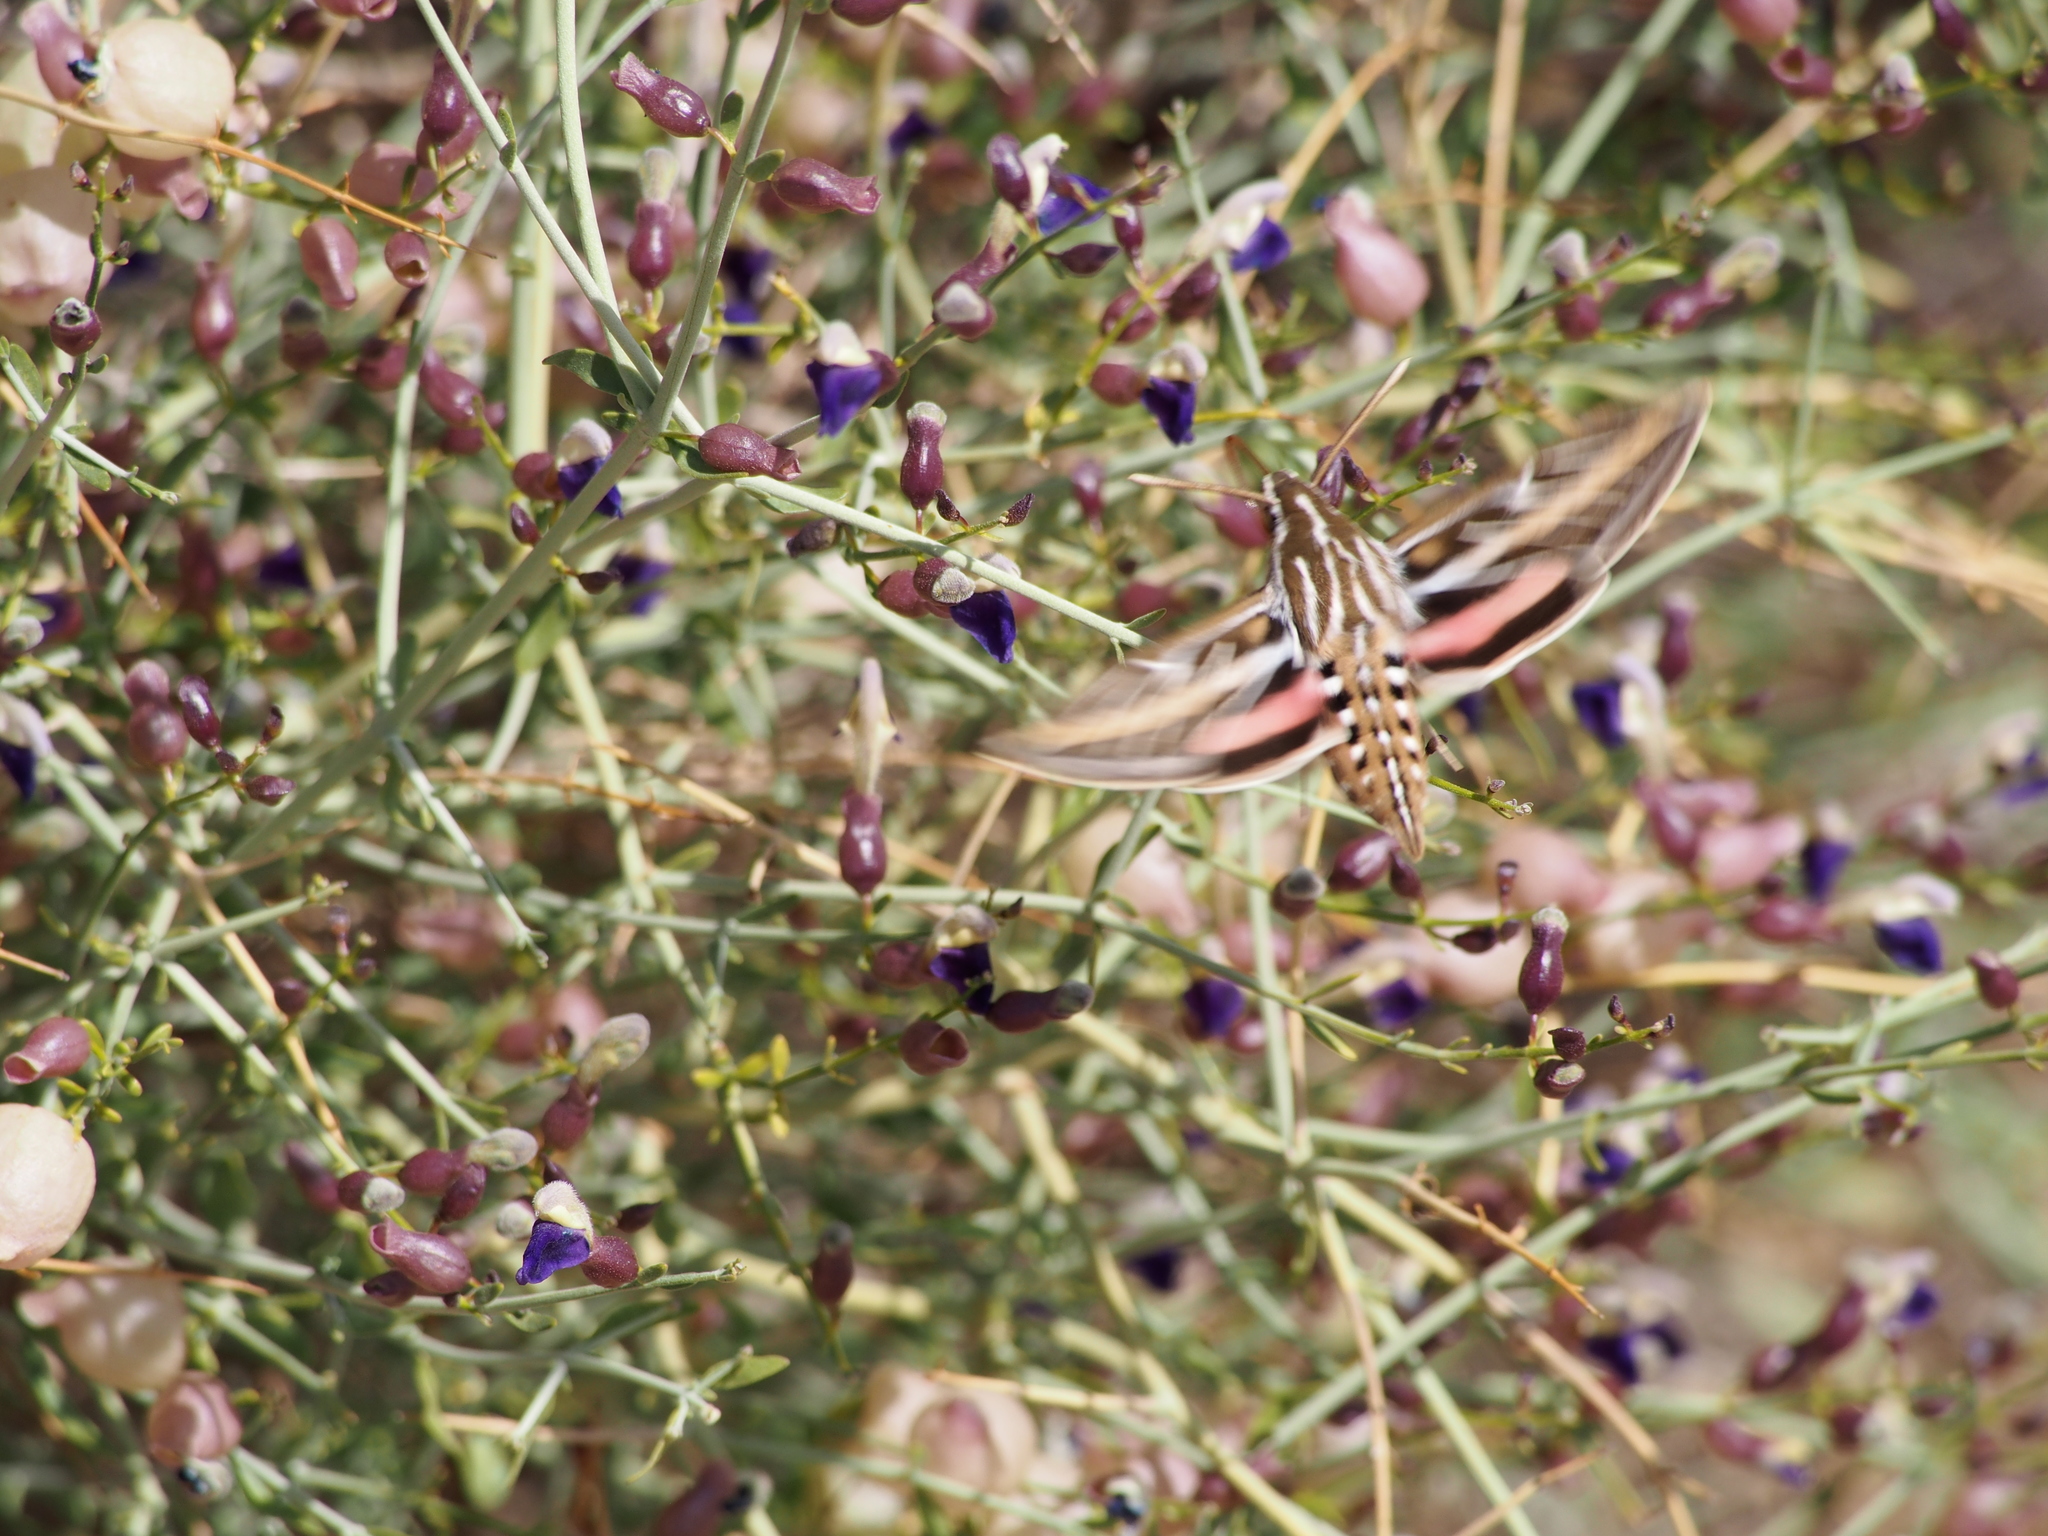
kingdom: Animalia
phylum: Arthropoda
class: Insecta
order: Lepidoptera
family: Sphingidae
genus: Hyles
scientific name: Hyles lineata
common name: White-lined sphinx
